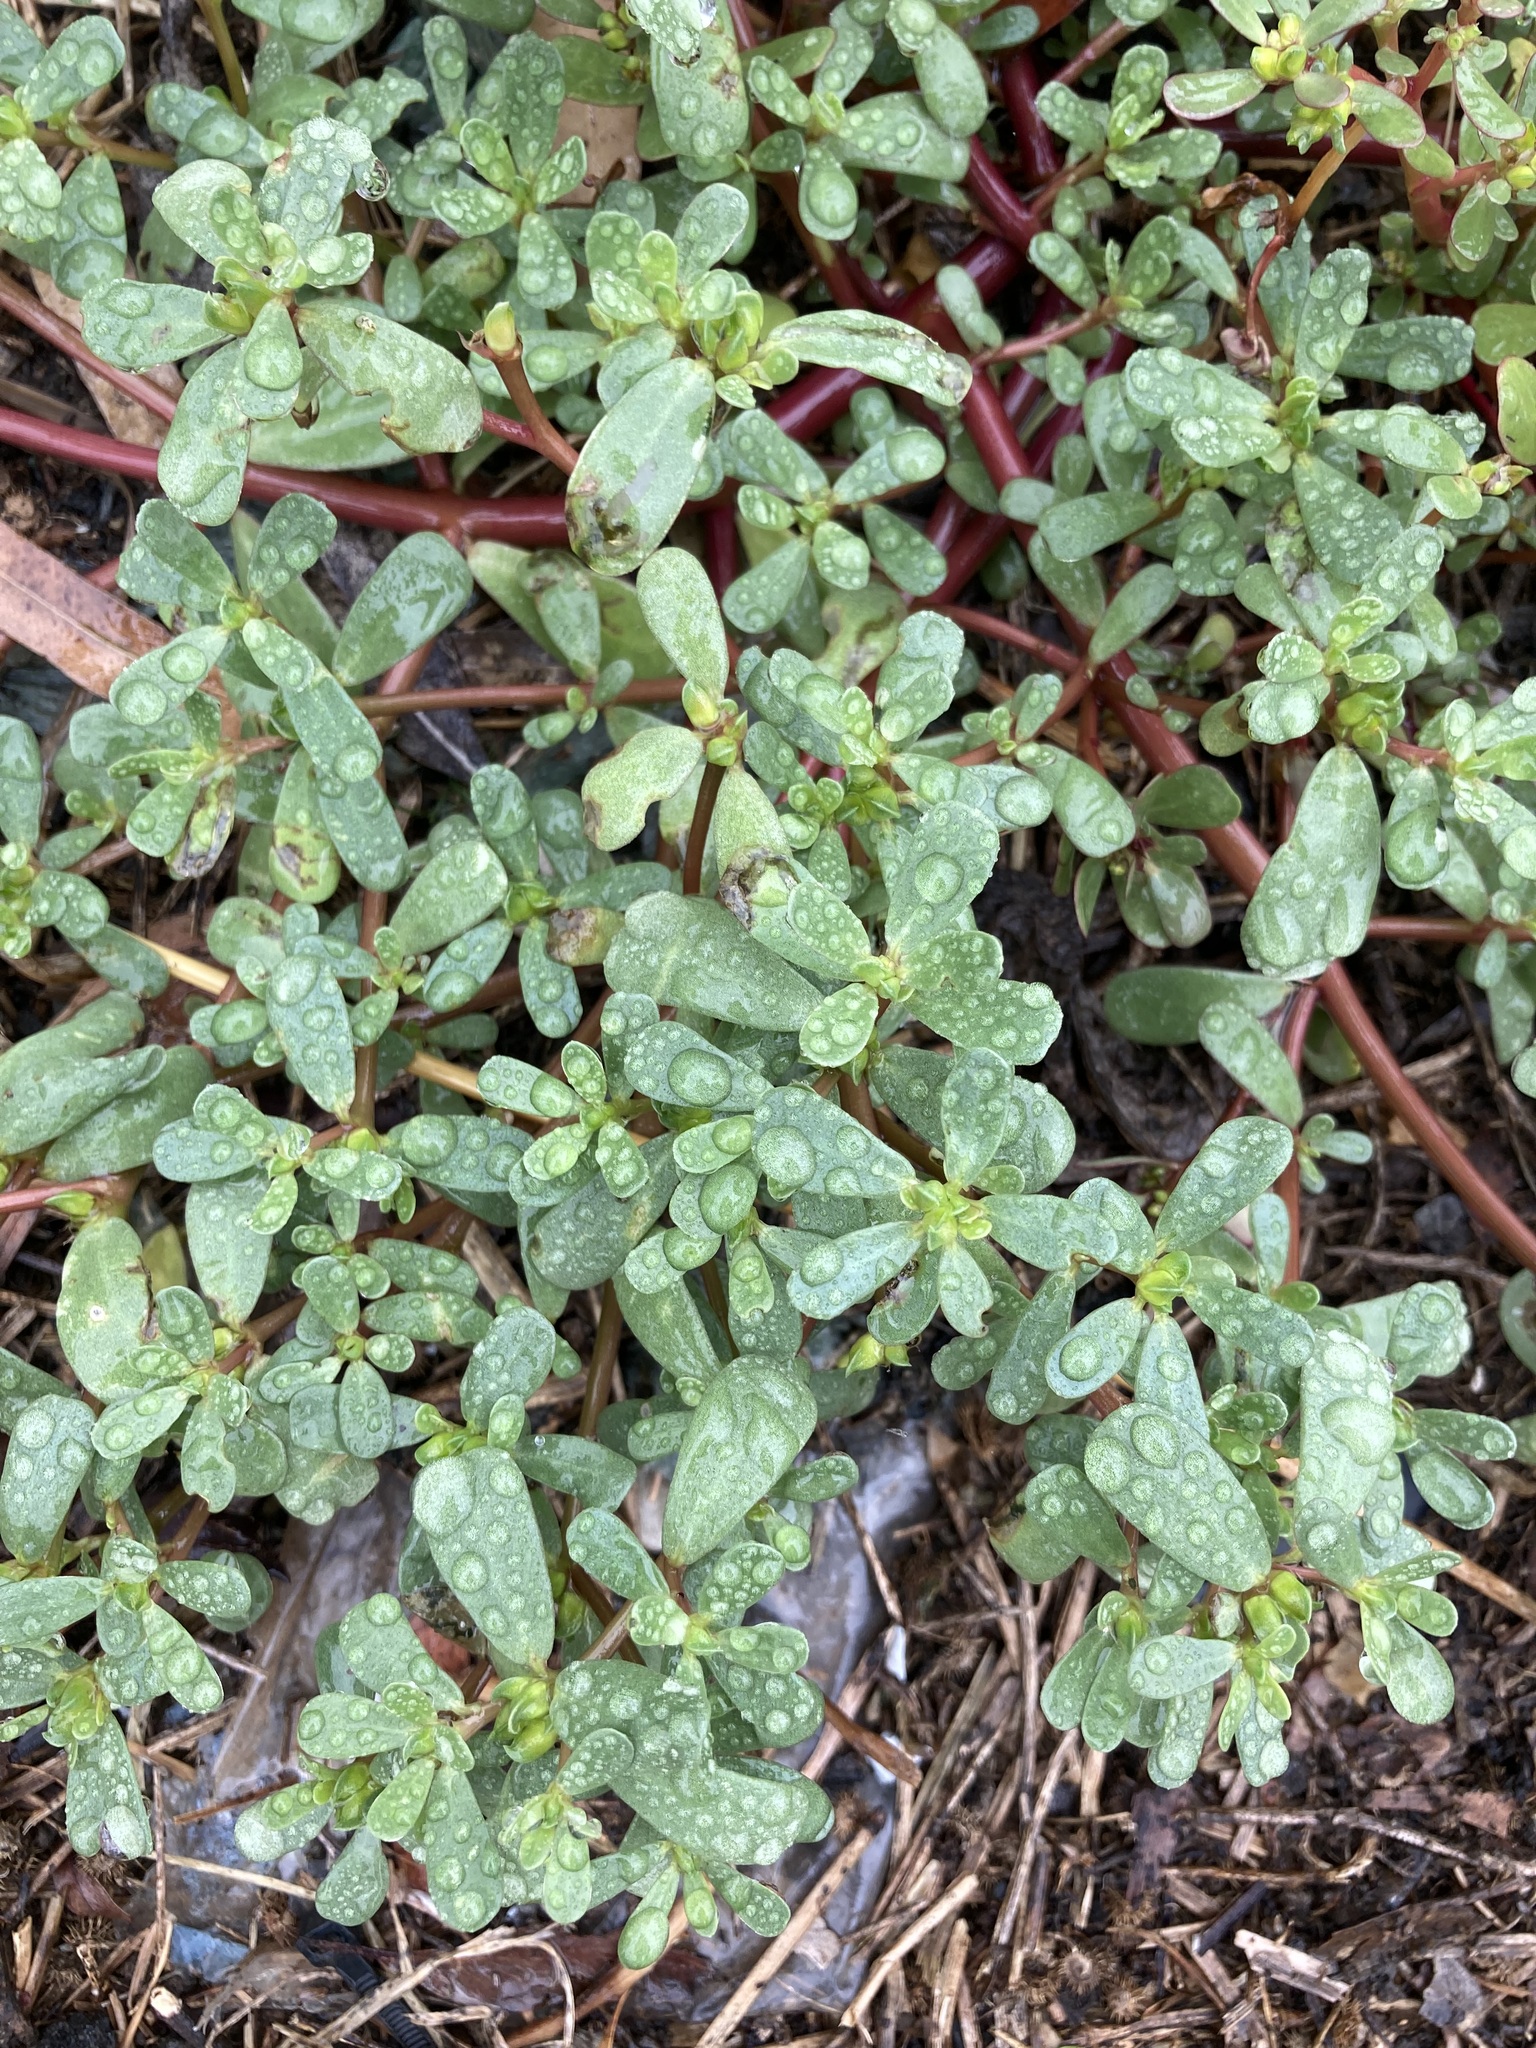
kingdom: Plantae
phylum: Tracheophyta
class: Magnoliopsida
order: Caryophyllales
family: Portulacaceae
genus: Portulaca
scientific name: Portulaca oleracea
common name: Common purslane
